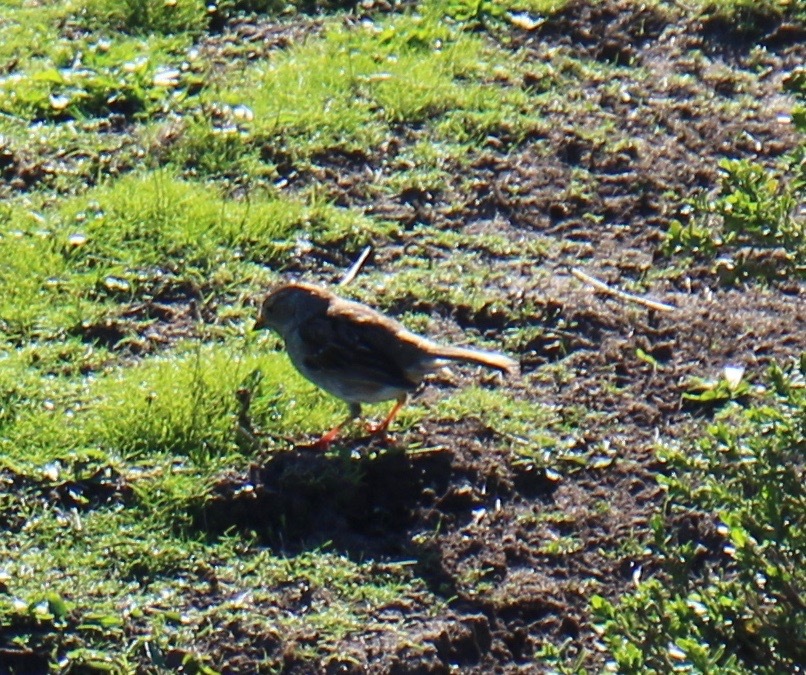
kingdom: Animalia
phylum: Chordata
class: Aves
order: Passeriformes
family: Passerellidae
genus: Zonotrichia
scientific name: Zonotrichia leucophrys
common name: White-crowned sparrow
